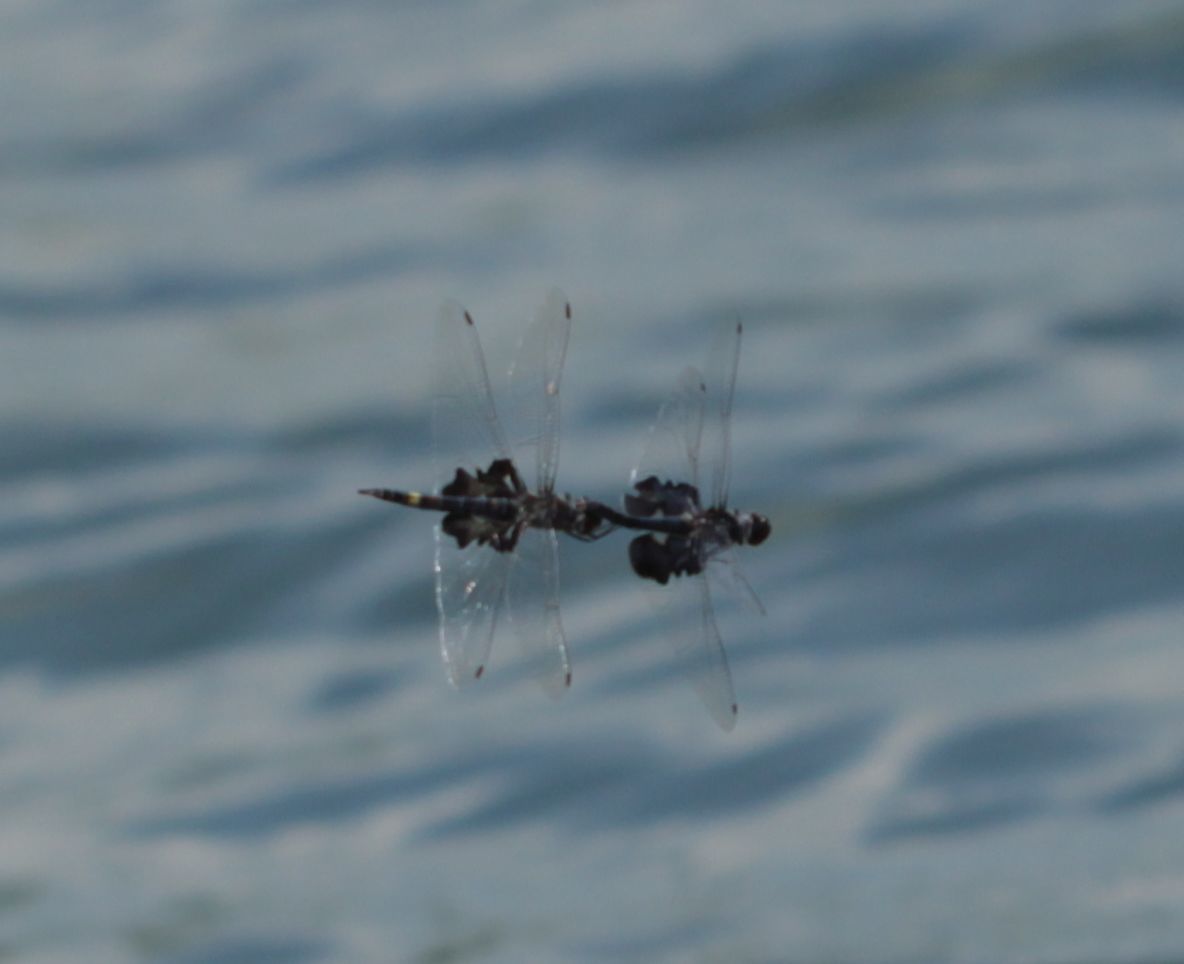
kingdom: Animalia
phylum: Arthropoda
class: Insecta
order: Odonata
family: Libellulidae
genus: Tramea
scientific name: Tramea lacerata
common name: Black saddlebags
